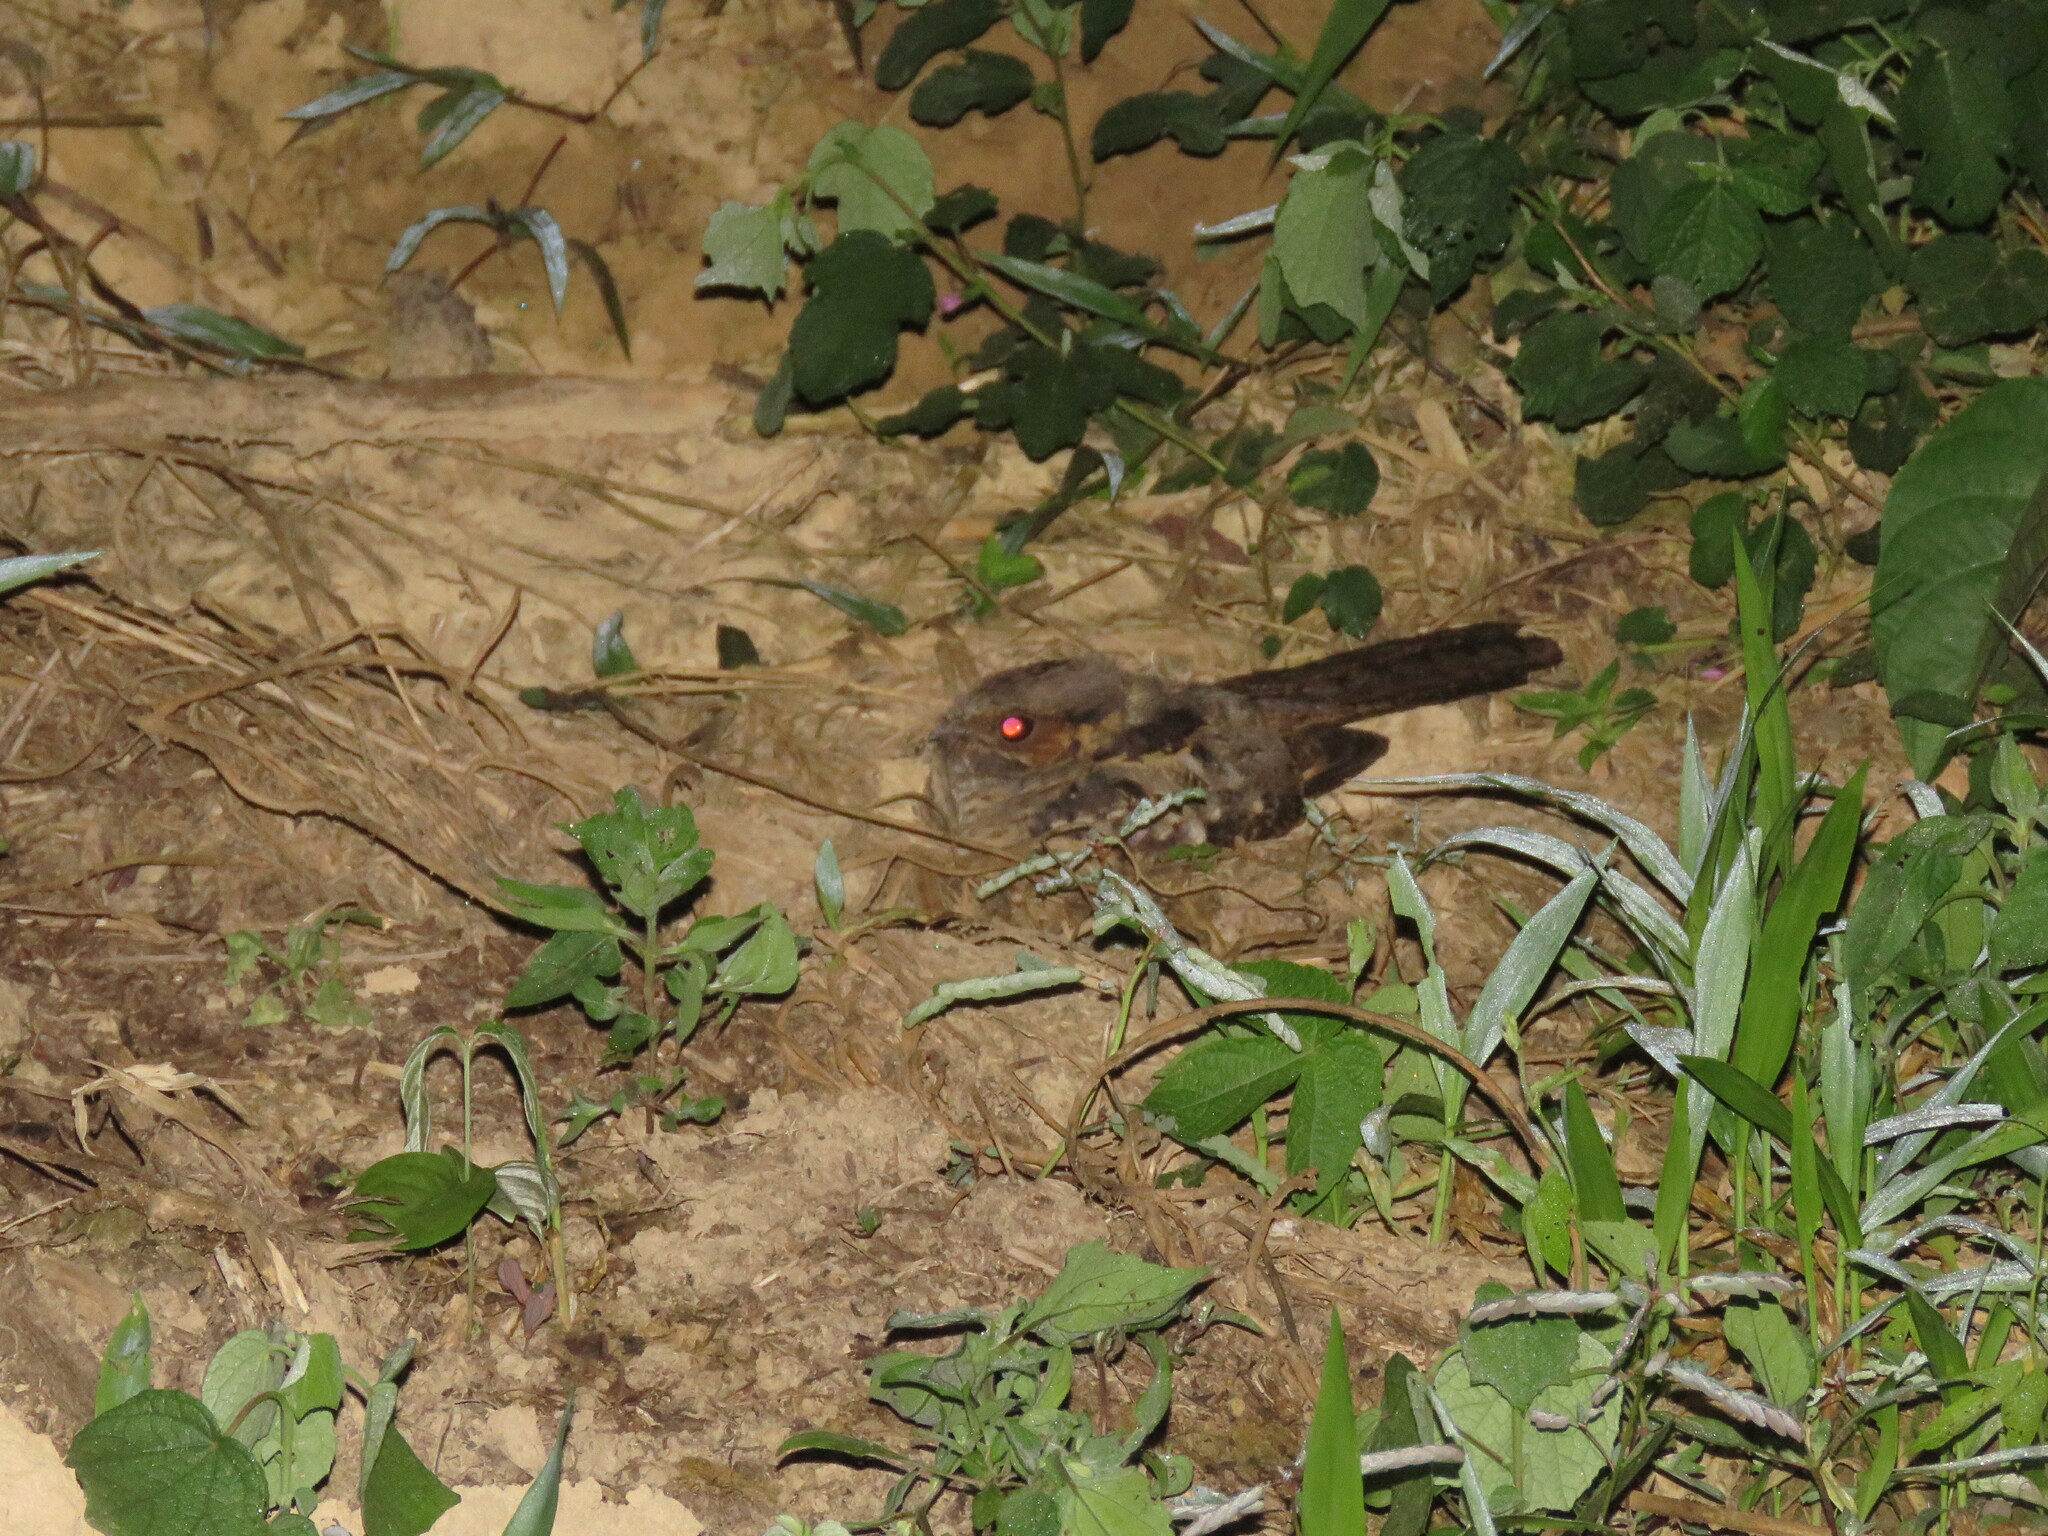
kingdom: Animalia
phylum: Chordata
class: Aves
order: Caprimulgiformes
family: Caprimulgidae
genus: Nyctidromus
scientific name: Nyctidromus albicollis
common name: Pauraque
